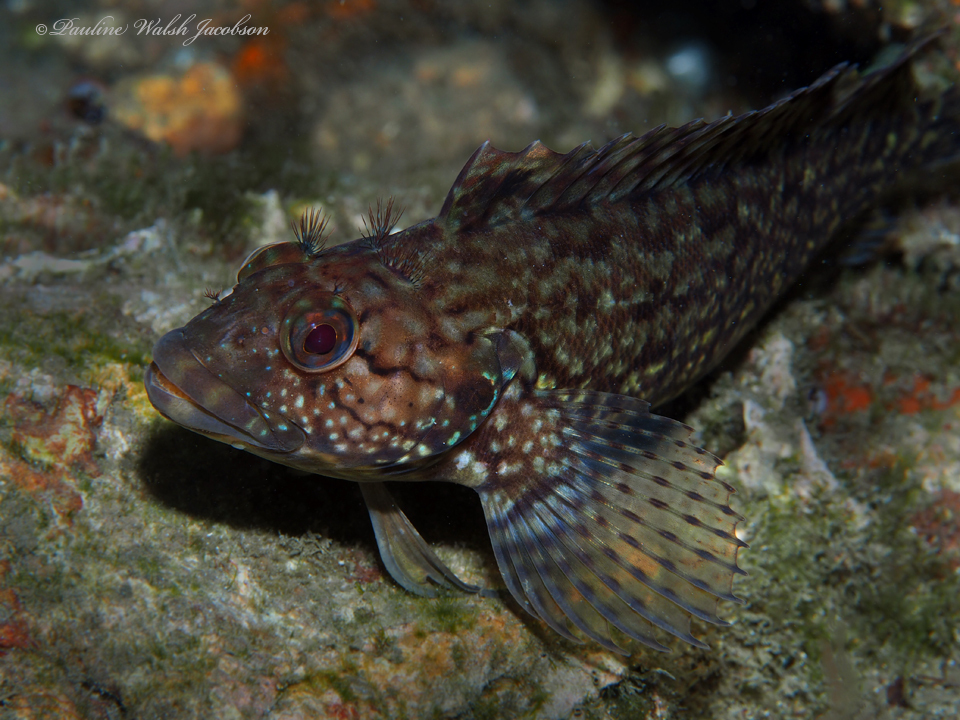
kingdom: Animalia
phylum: Chordata
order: Perciformes
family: Labrisomidae
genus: Labrisomus
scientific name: Labrisomus conditus
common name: Masquerader hairy blenny
